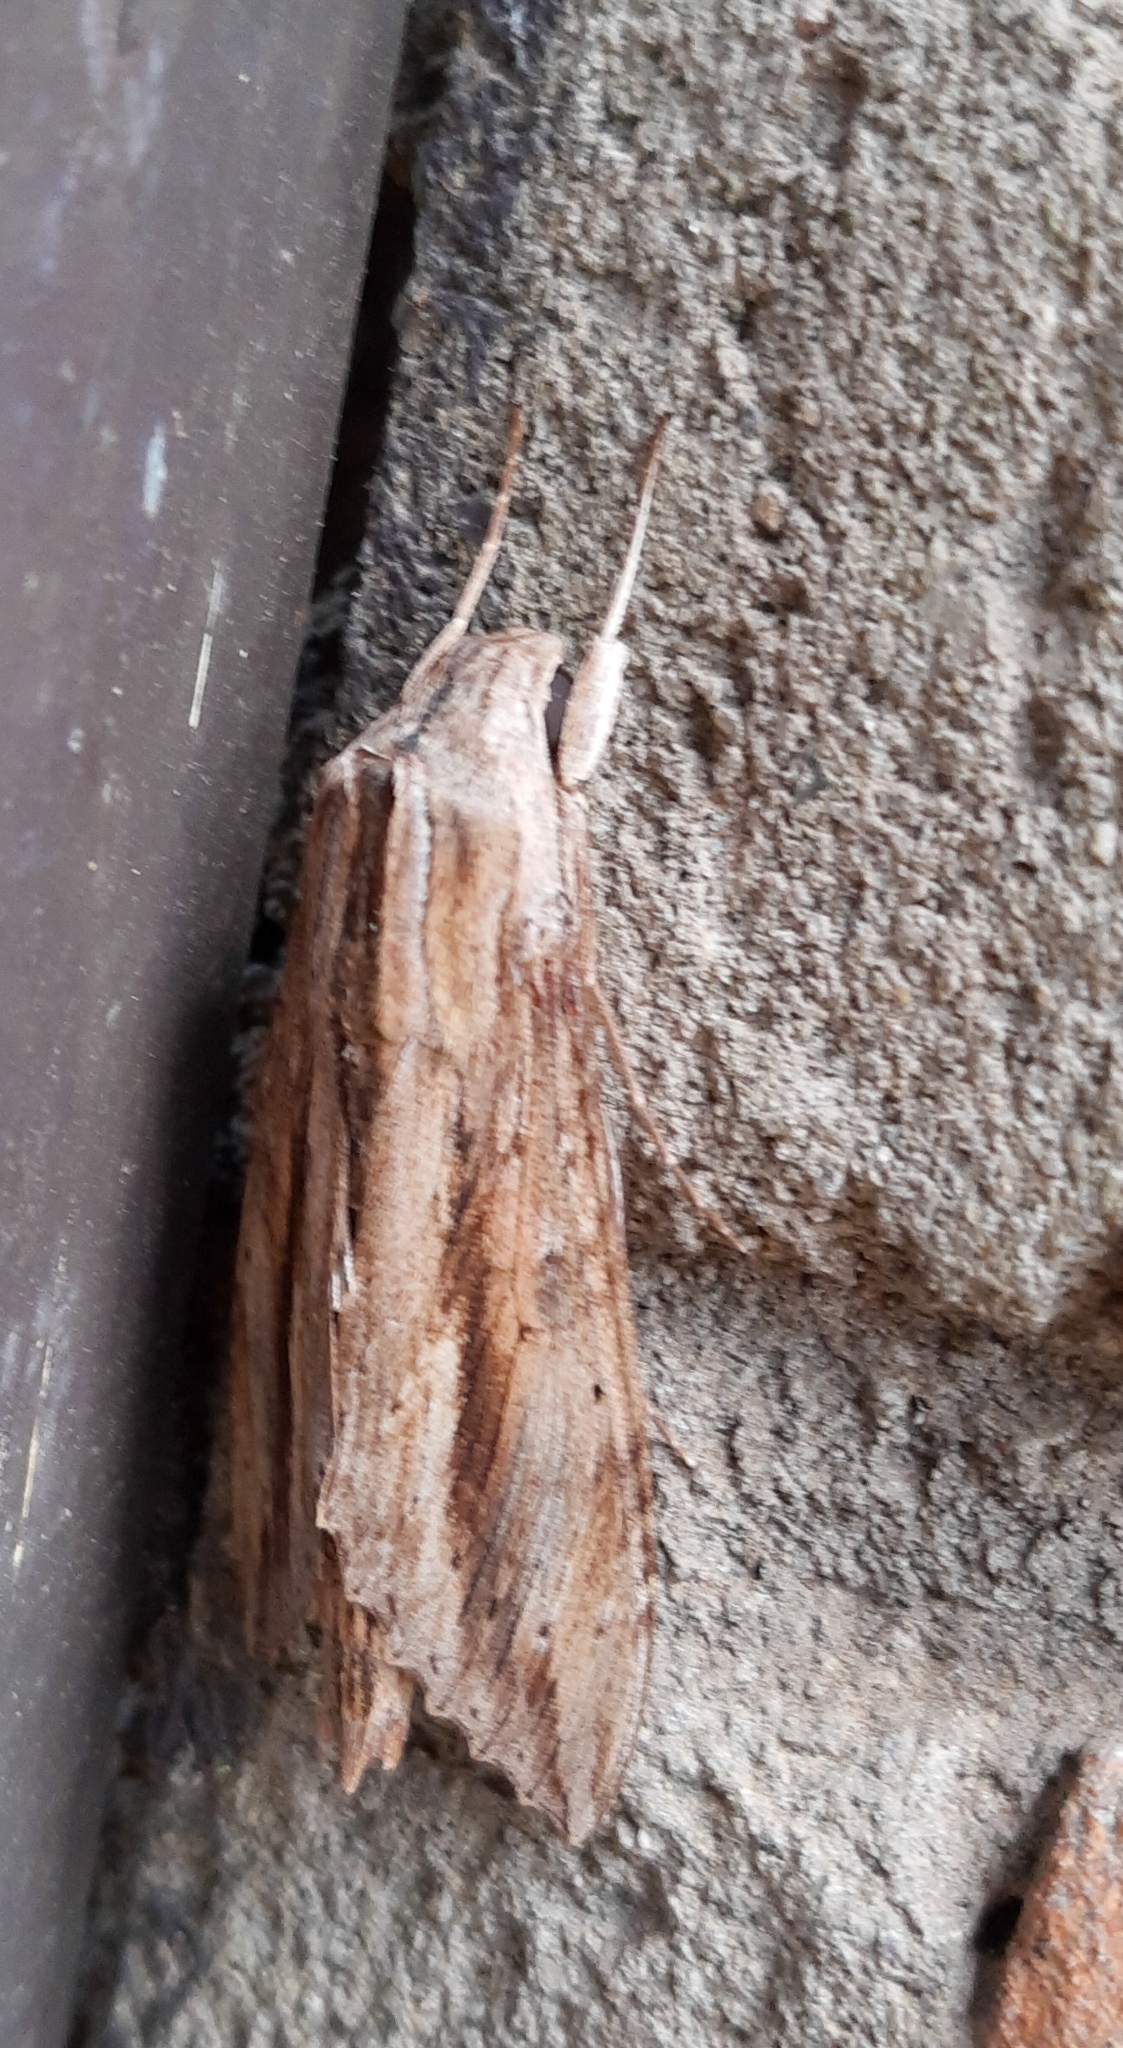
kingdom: Animalia
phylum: Arthropoda
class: Insecta
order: Lepidoptera
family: Sphingidae
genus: Erinnyis
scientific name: Erinnyis ello
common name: Ello sphinx
